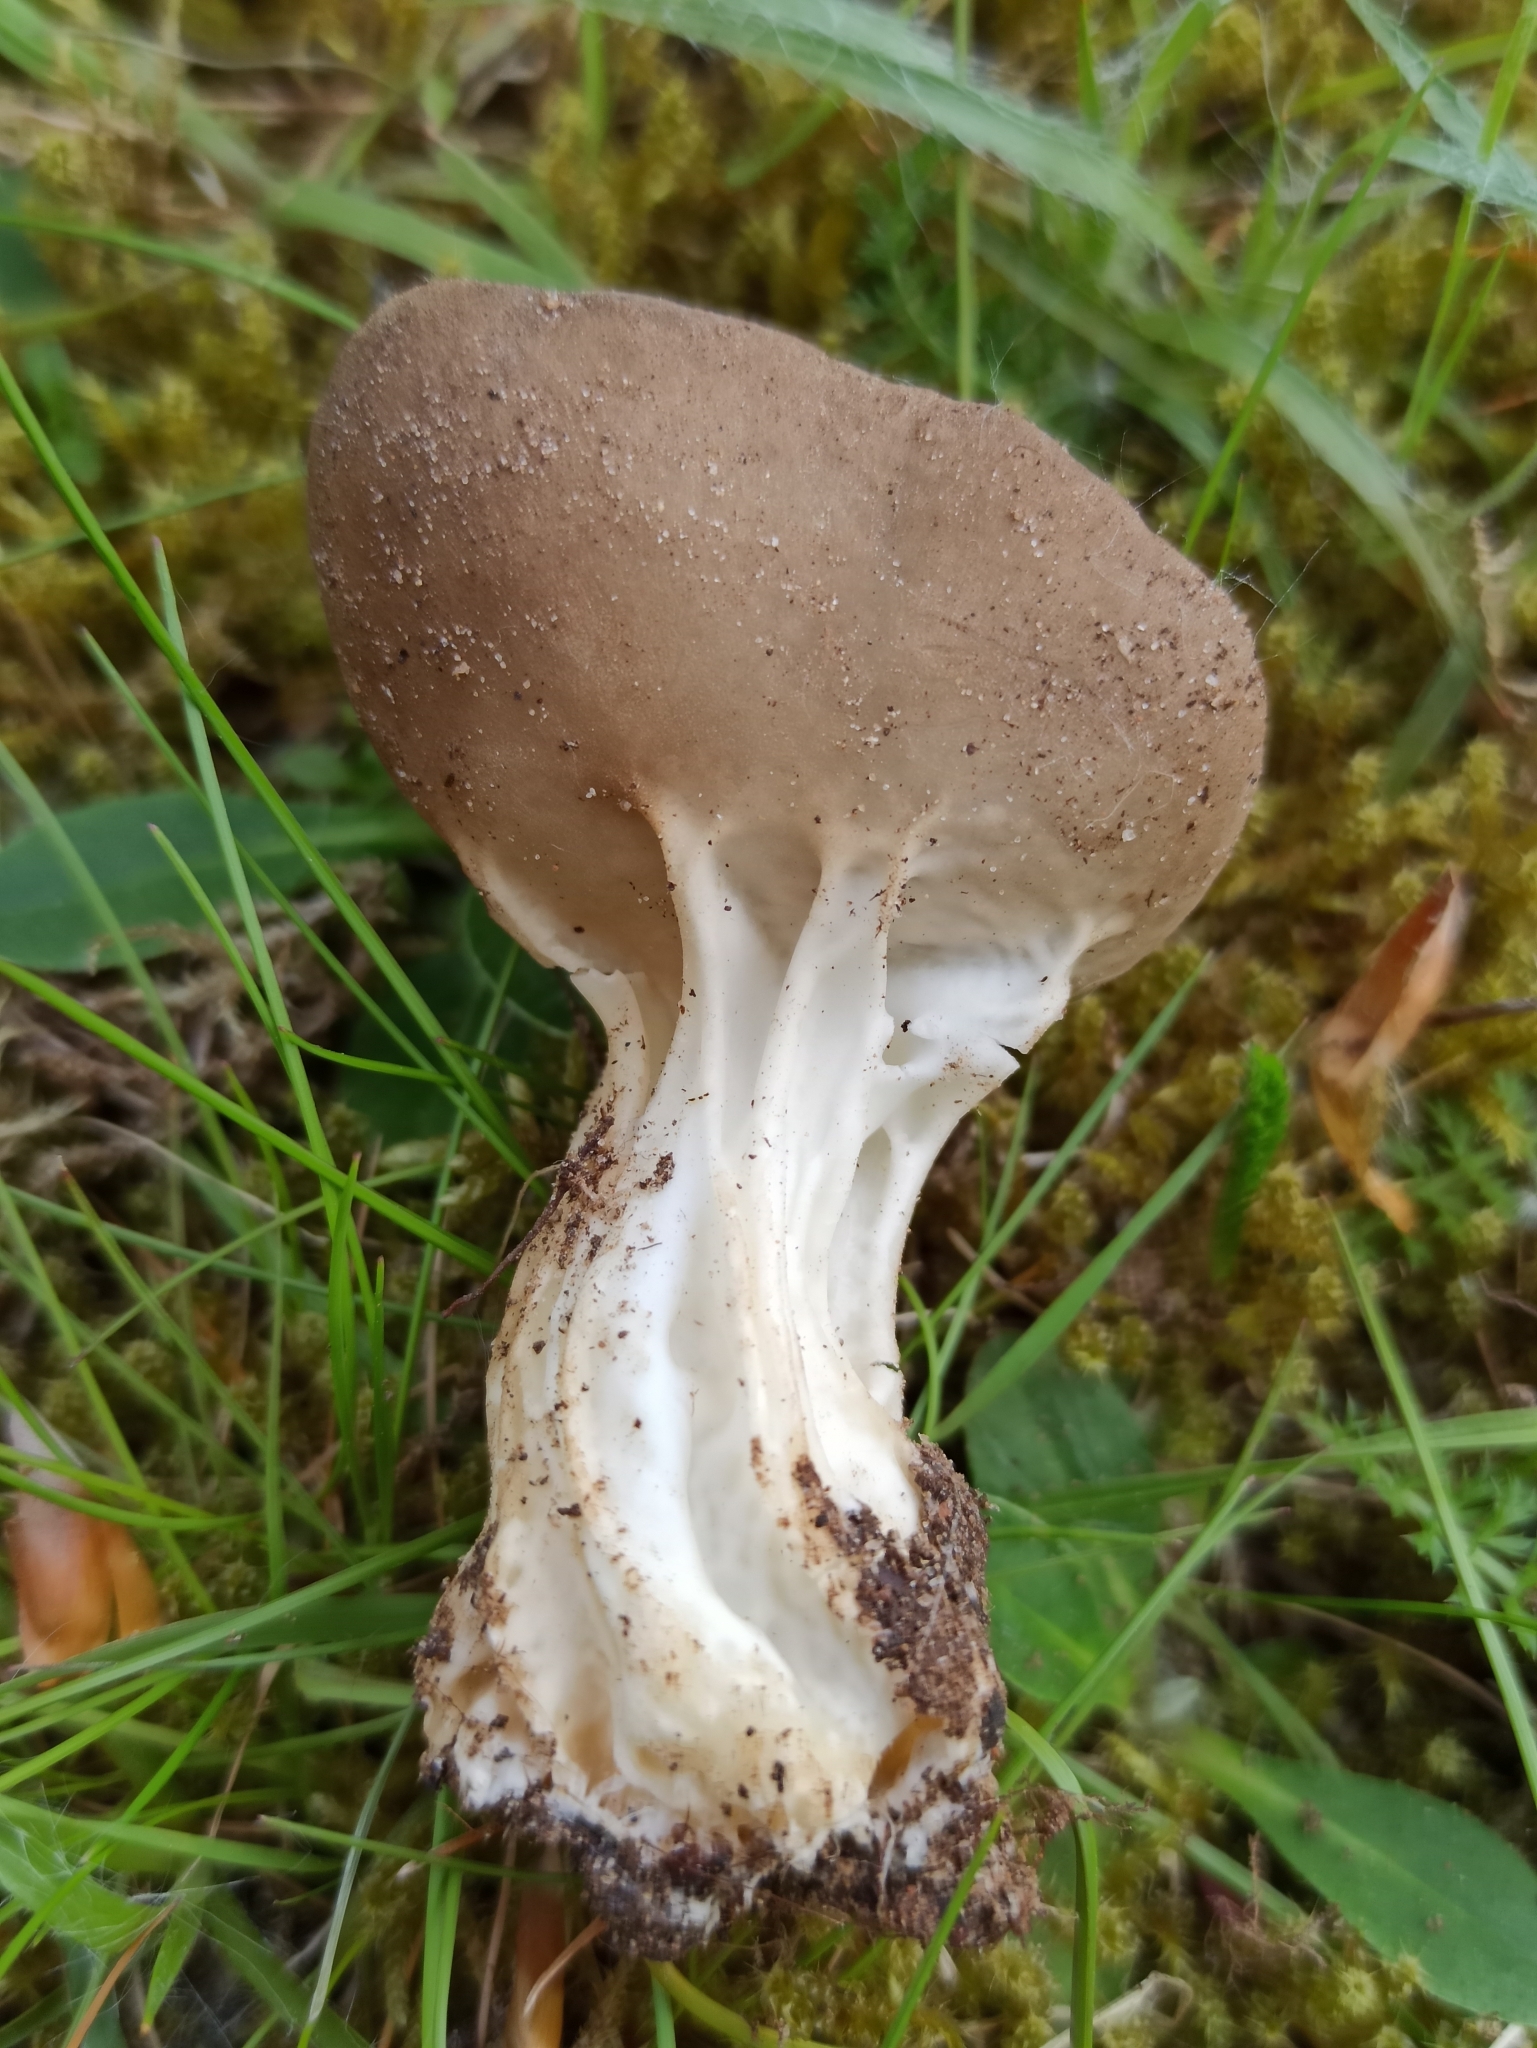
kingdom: Fungi
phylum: Ascomycota
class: Pezizomycetes
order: Pezizales
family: Helvellaceae
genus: Helvella
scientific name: Helvella acetabulum
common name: Vinegar cup
